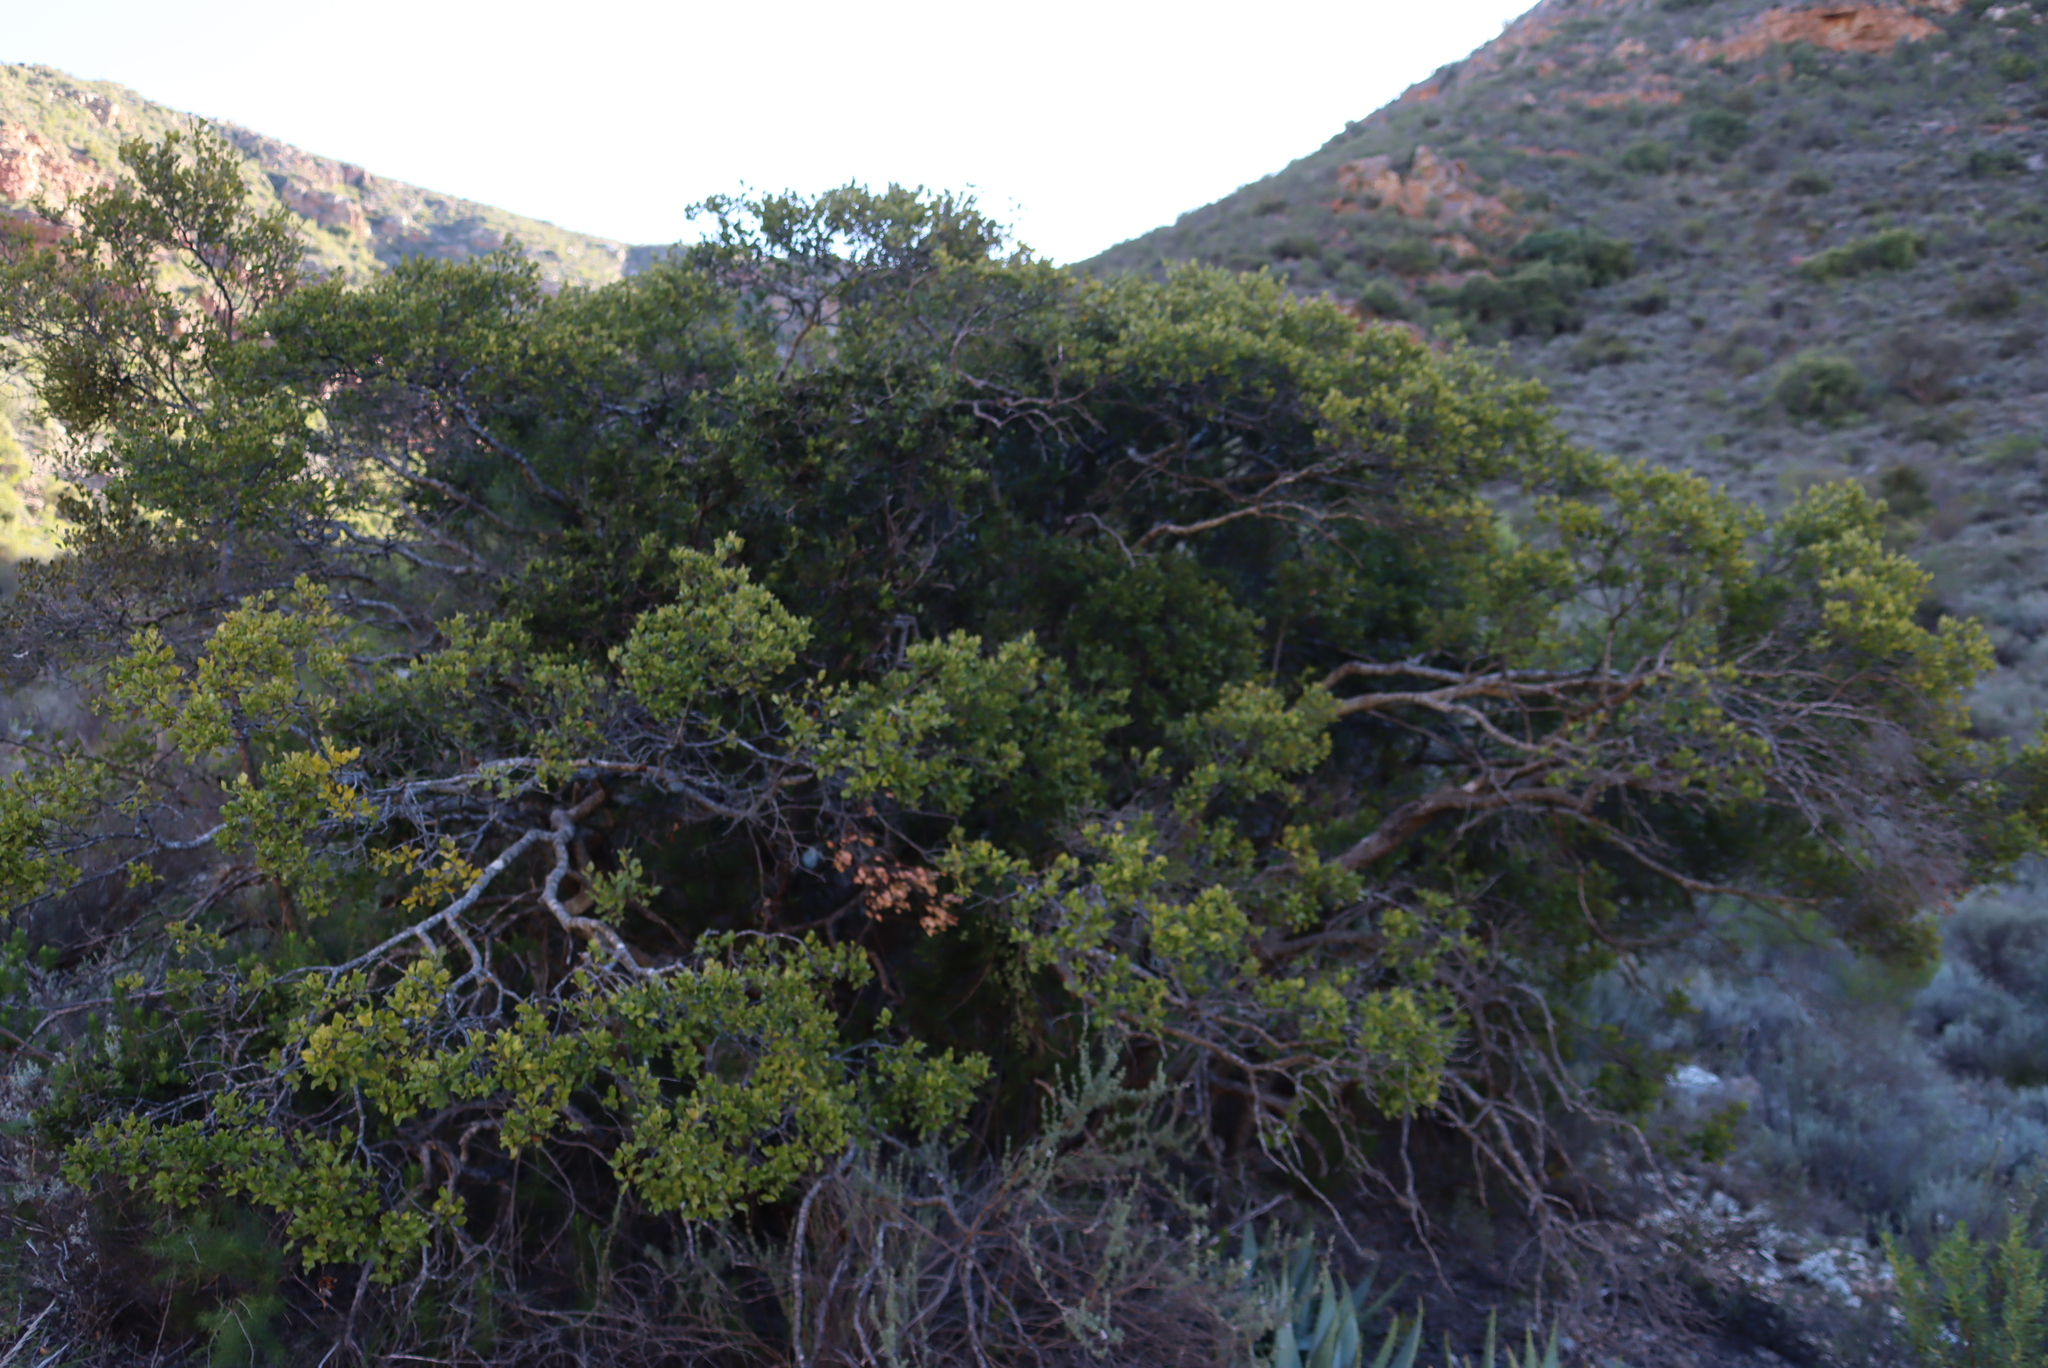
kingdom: Plantae
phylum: Tracheophyta
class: Magnoliopsida
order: Ericales
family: Ebenaceae
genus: Euclea
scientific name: Euclea undulata
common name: Small-leaved guarri
